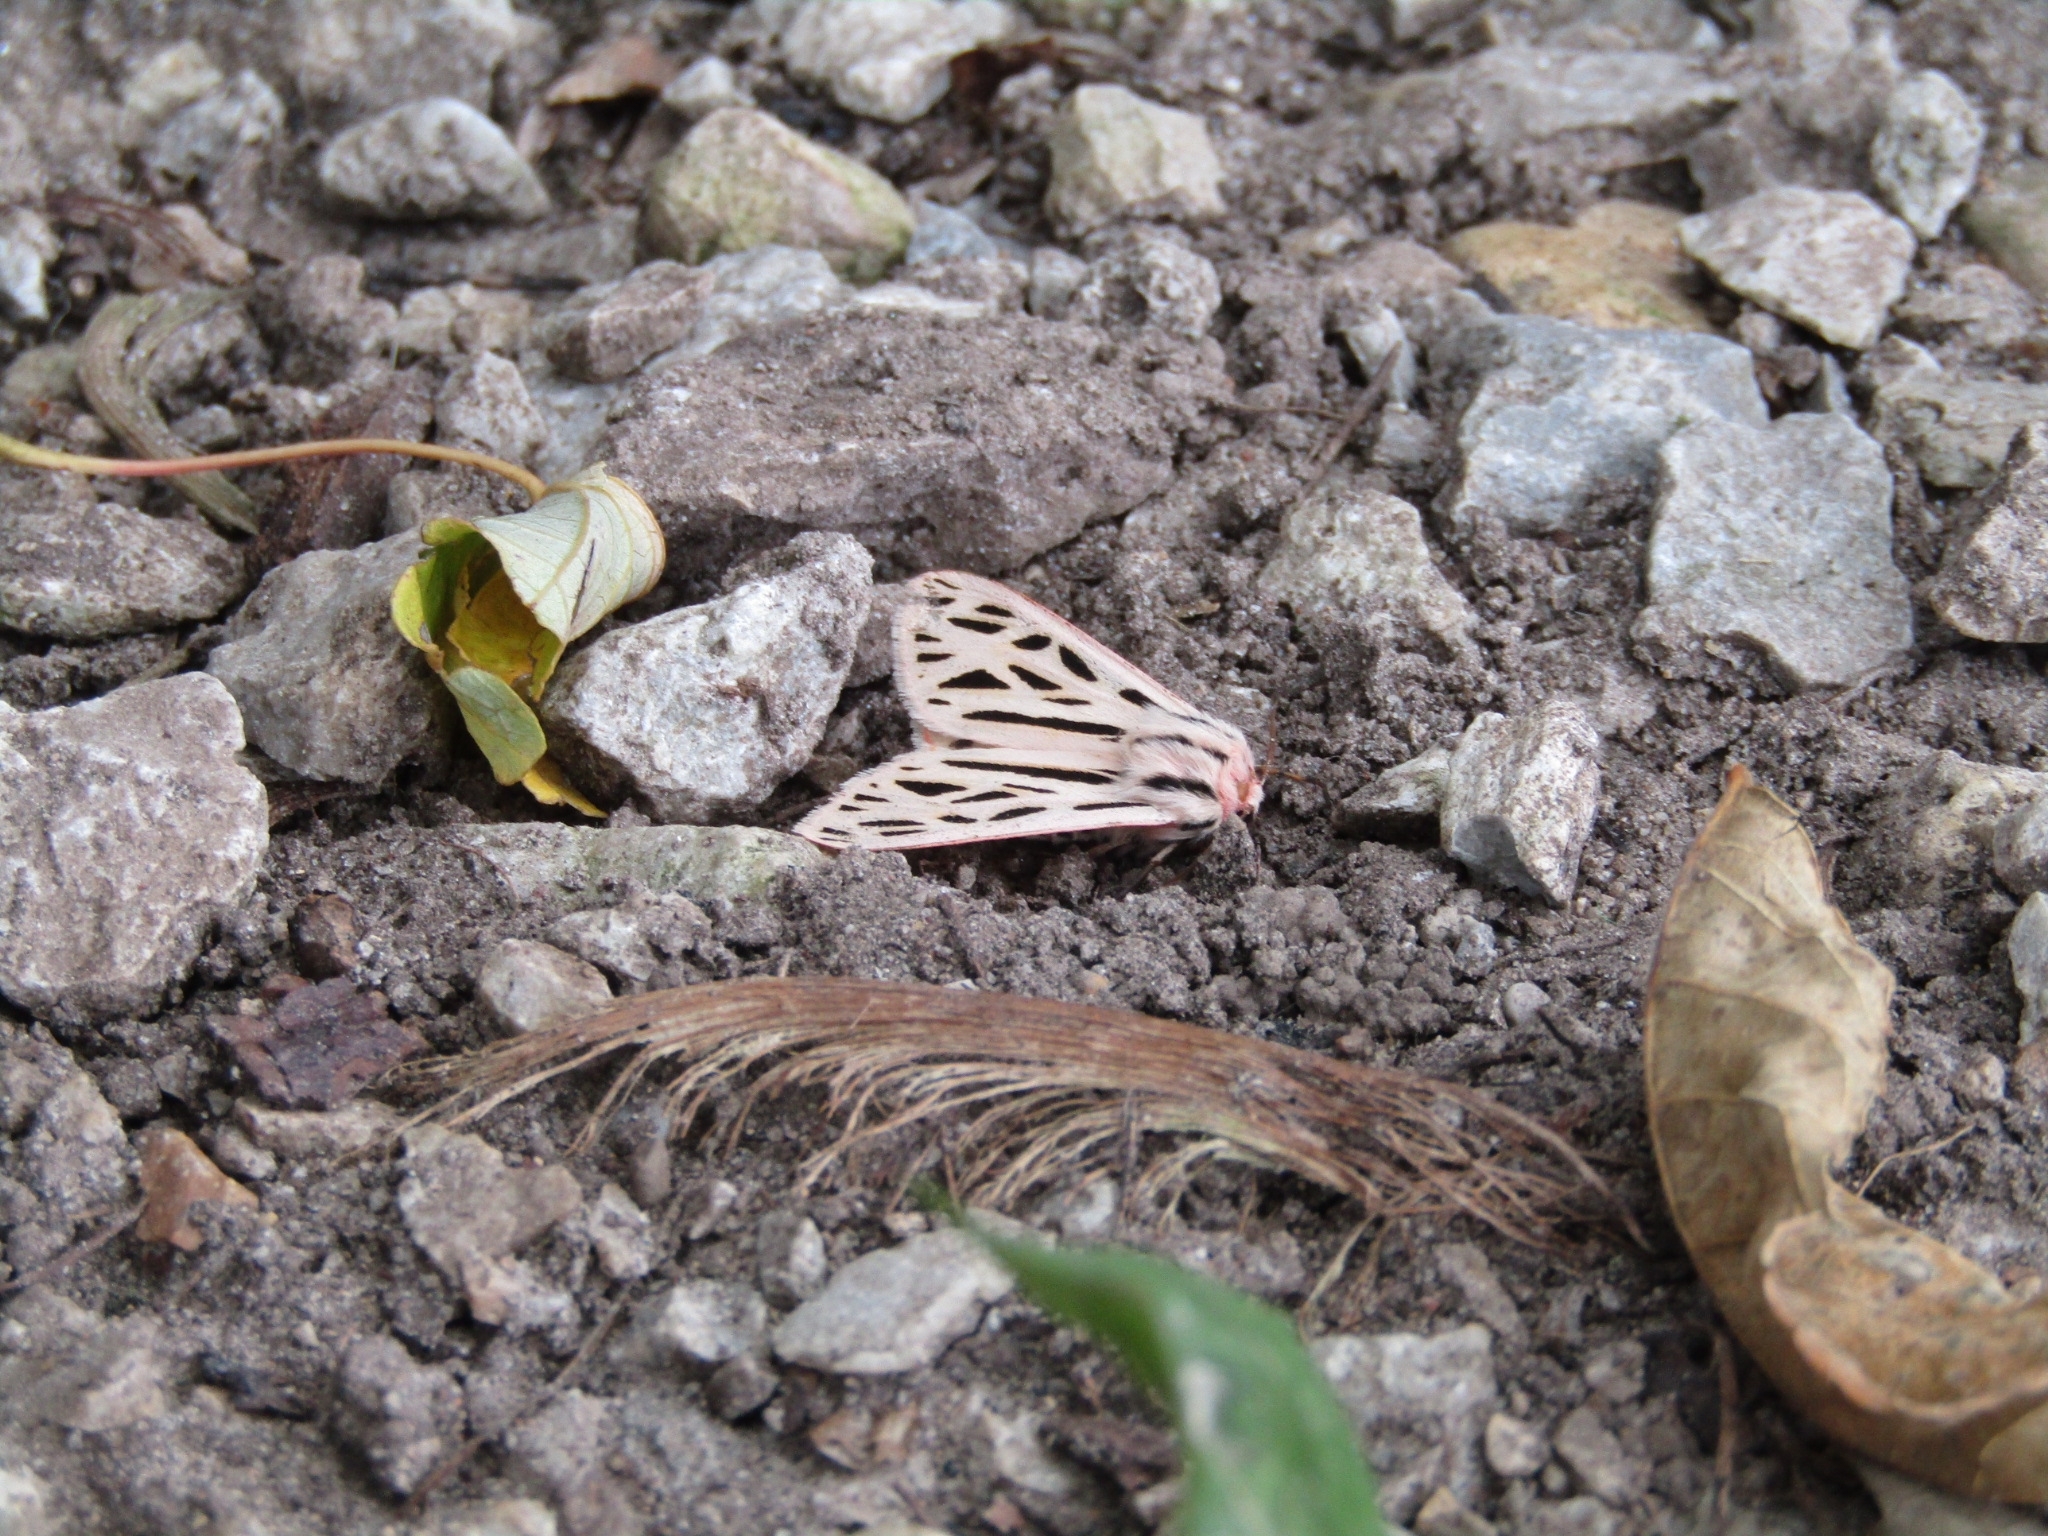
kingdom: Animalia
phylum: Arthropoda
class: Insecta
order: Lepidoptera
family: Erebidae
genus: Apantesis
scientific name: Apantesis arge
